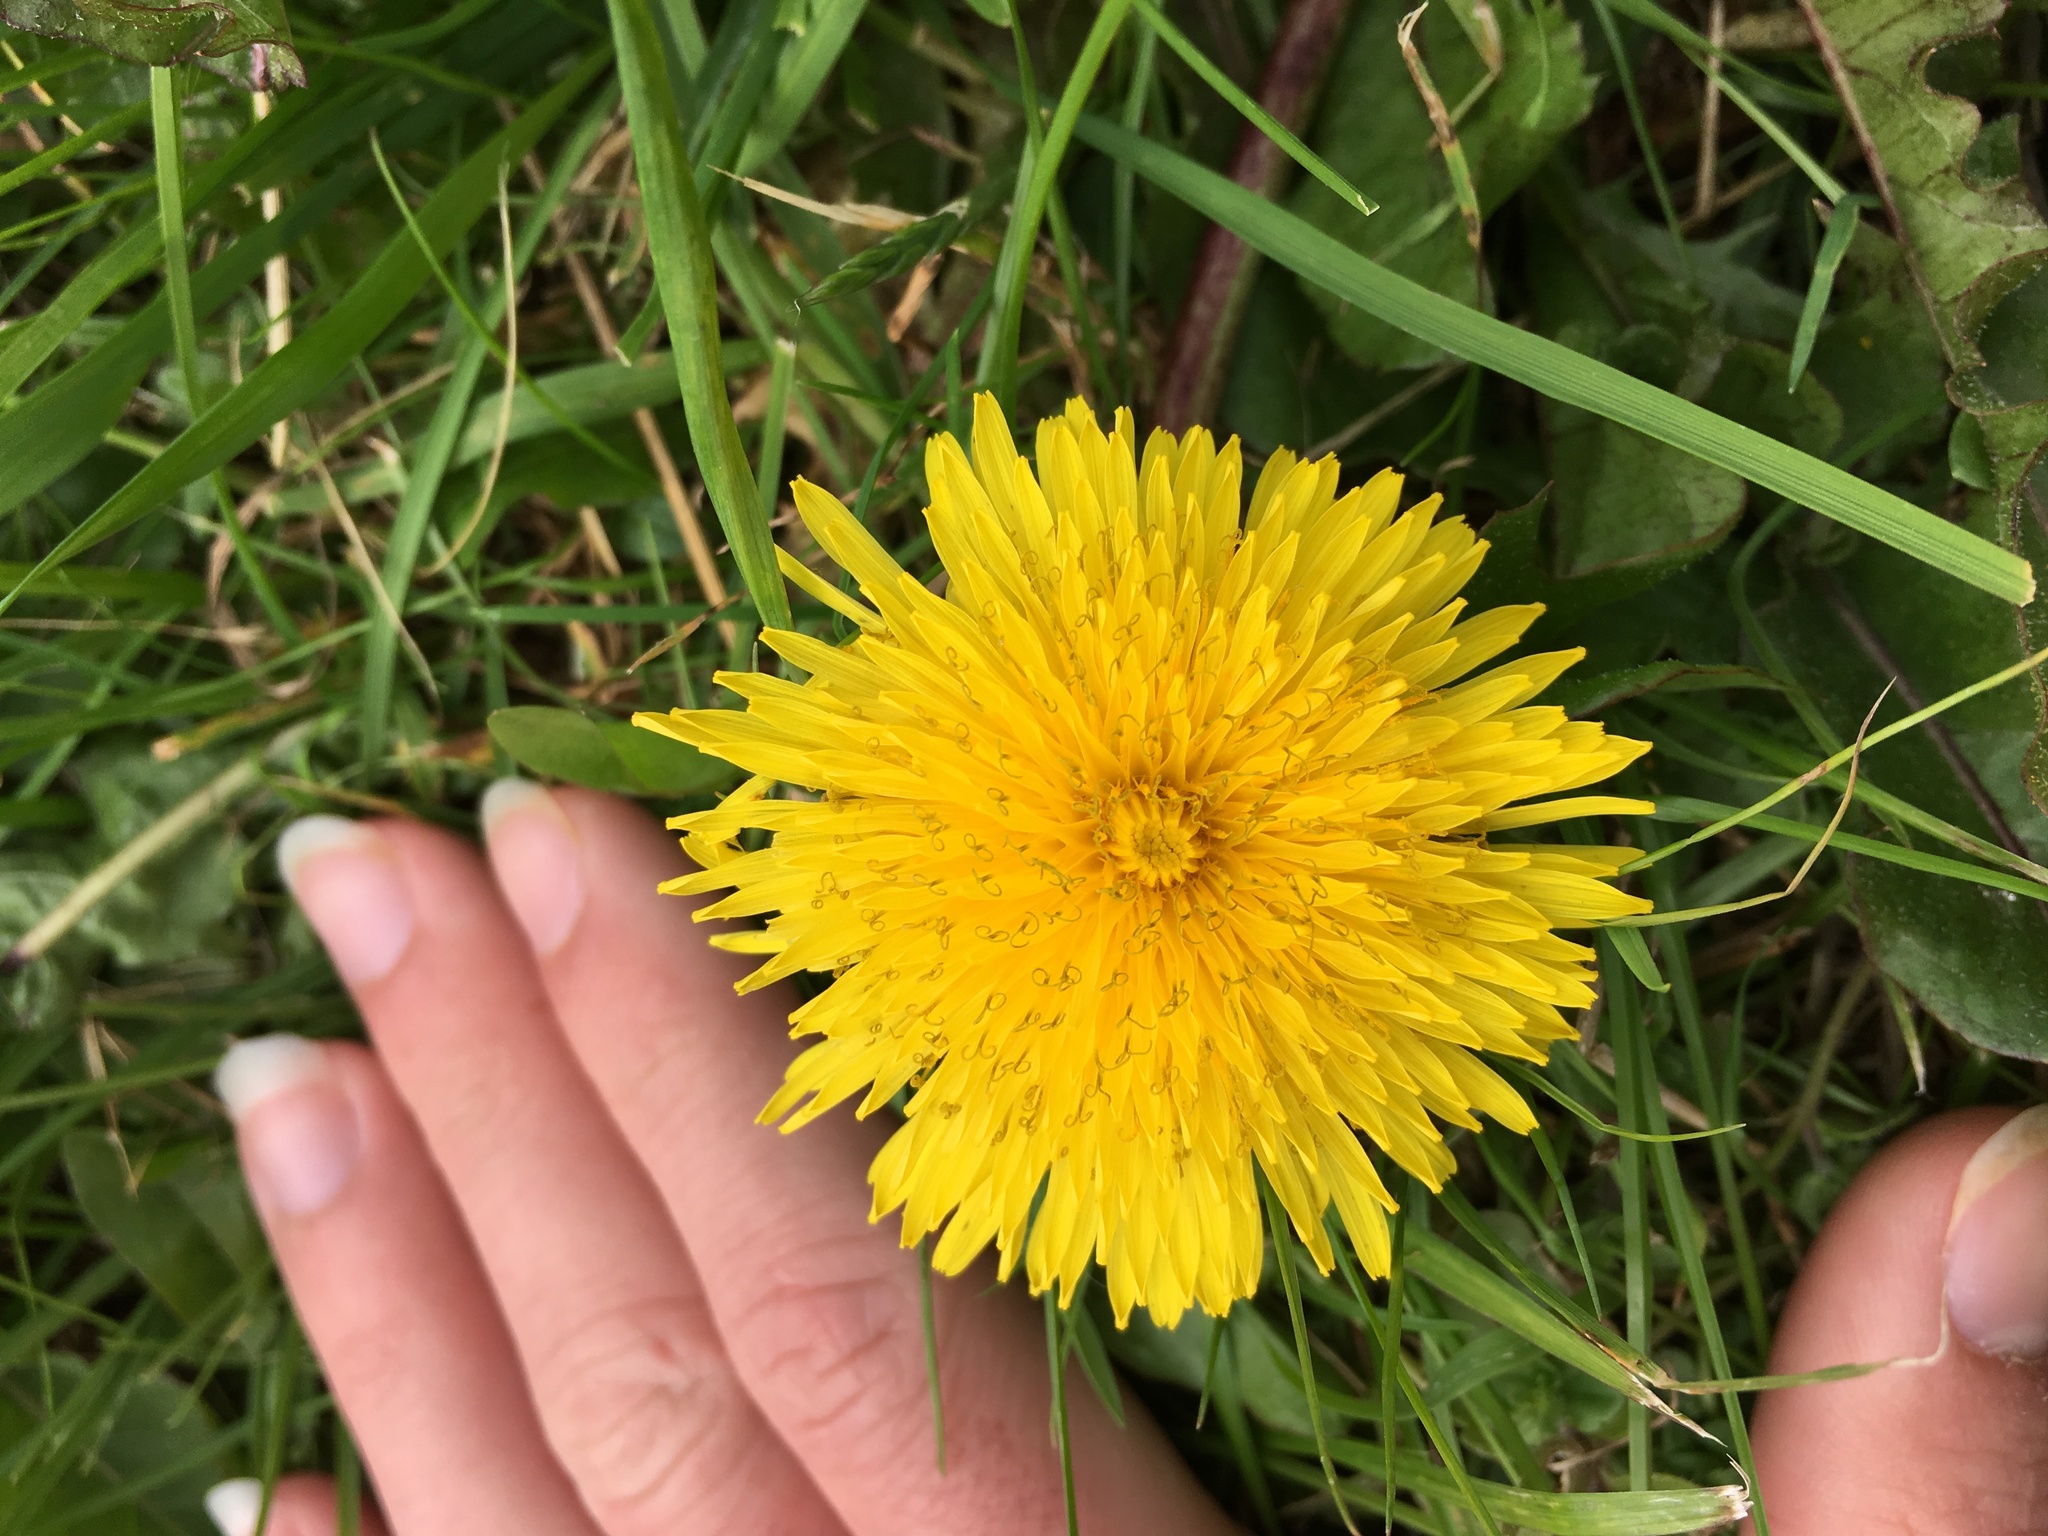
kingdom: Plantae
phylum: Tracheophyta
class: Magnoliopsida
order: Asterales
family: Asteraceae
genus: Taraxacum
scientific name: Taraxacum officinale
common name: Common dandelion
